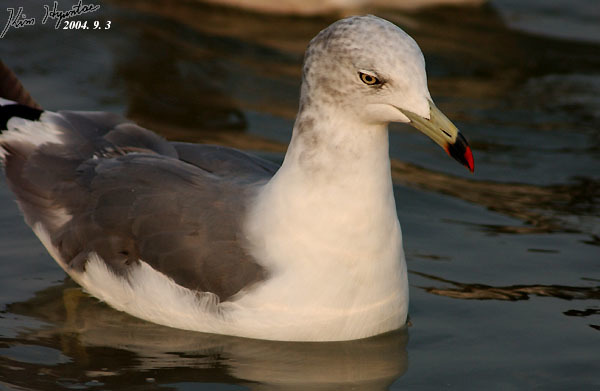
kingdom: Animalia
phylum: Chordata
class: Aves
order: Charadriiformes
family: Laridae
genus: Larus
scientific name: Larus crassirostris
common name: Black-tailed gull
